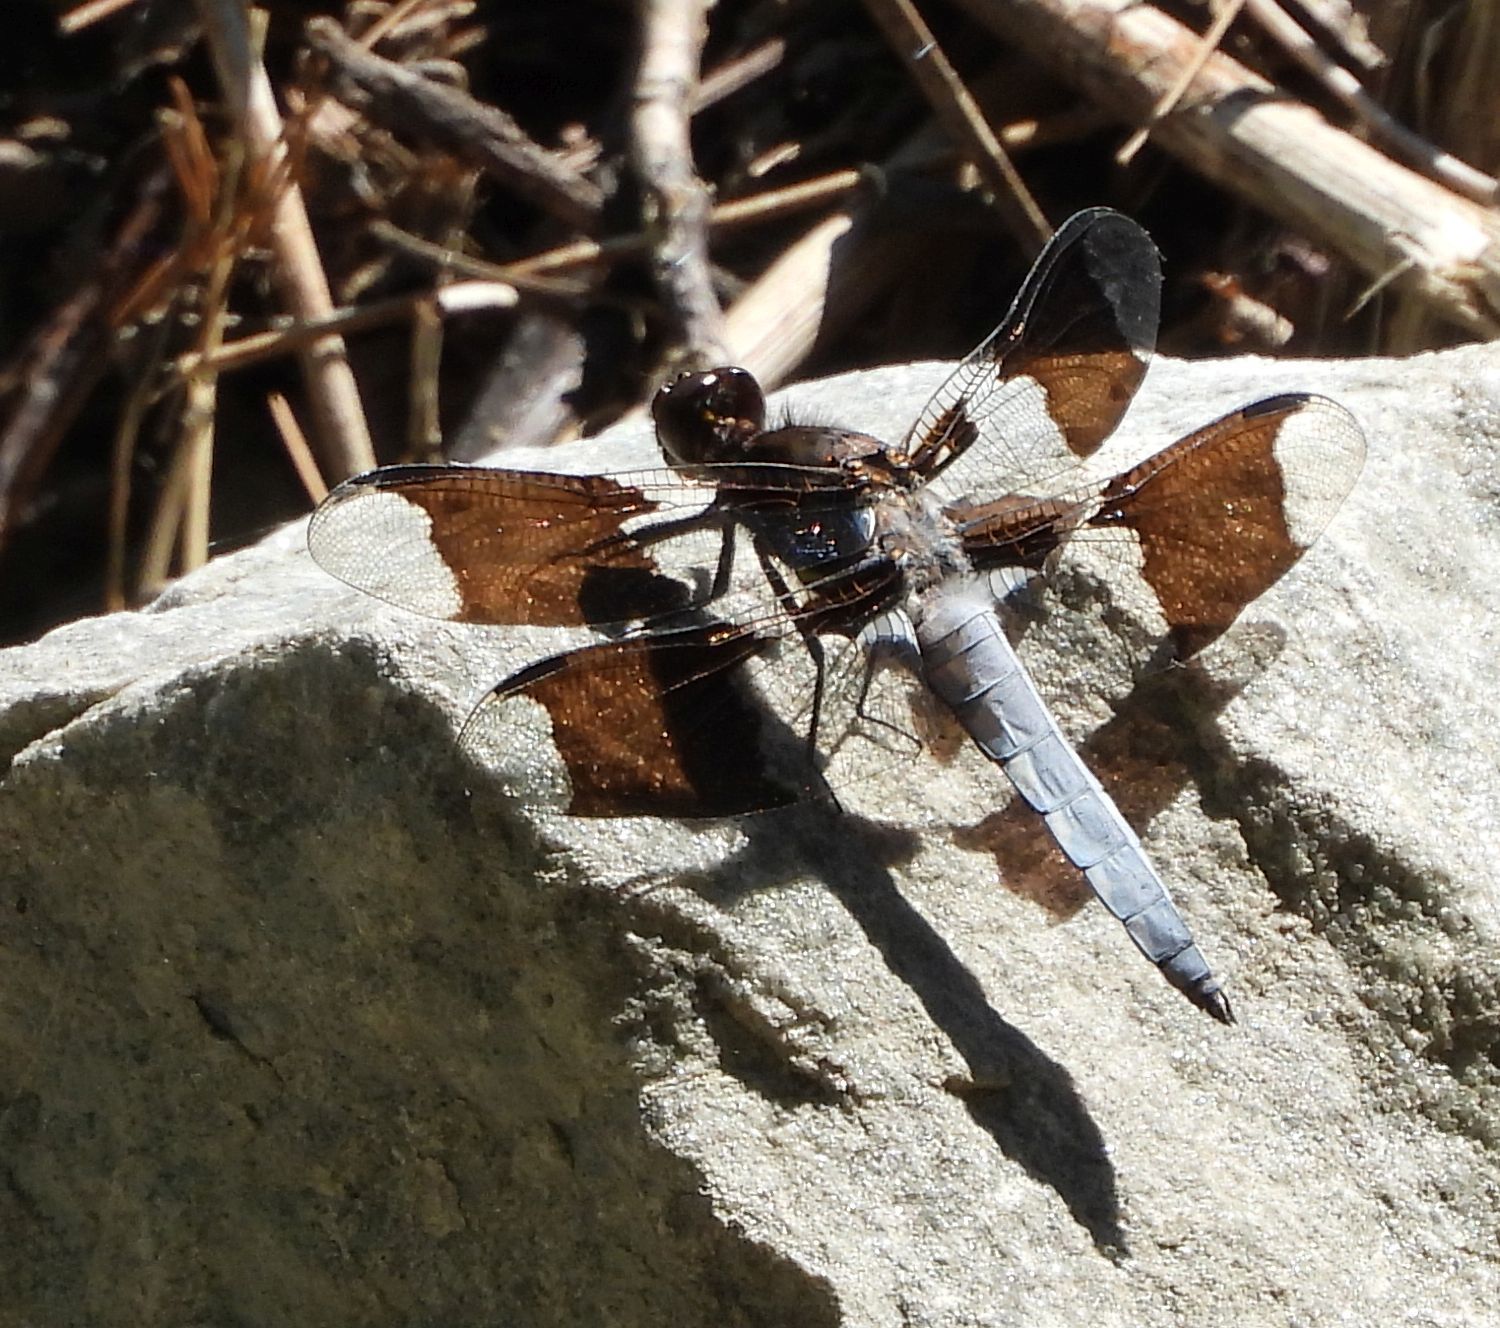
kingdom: Animalia
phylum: Arthropoda
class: Insecta
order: Odonata
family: Libellulidae
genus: Plathemis
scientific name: Plathemis lydia
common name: Common whitetail
